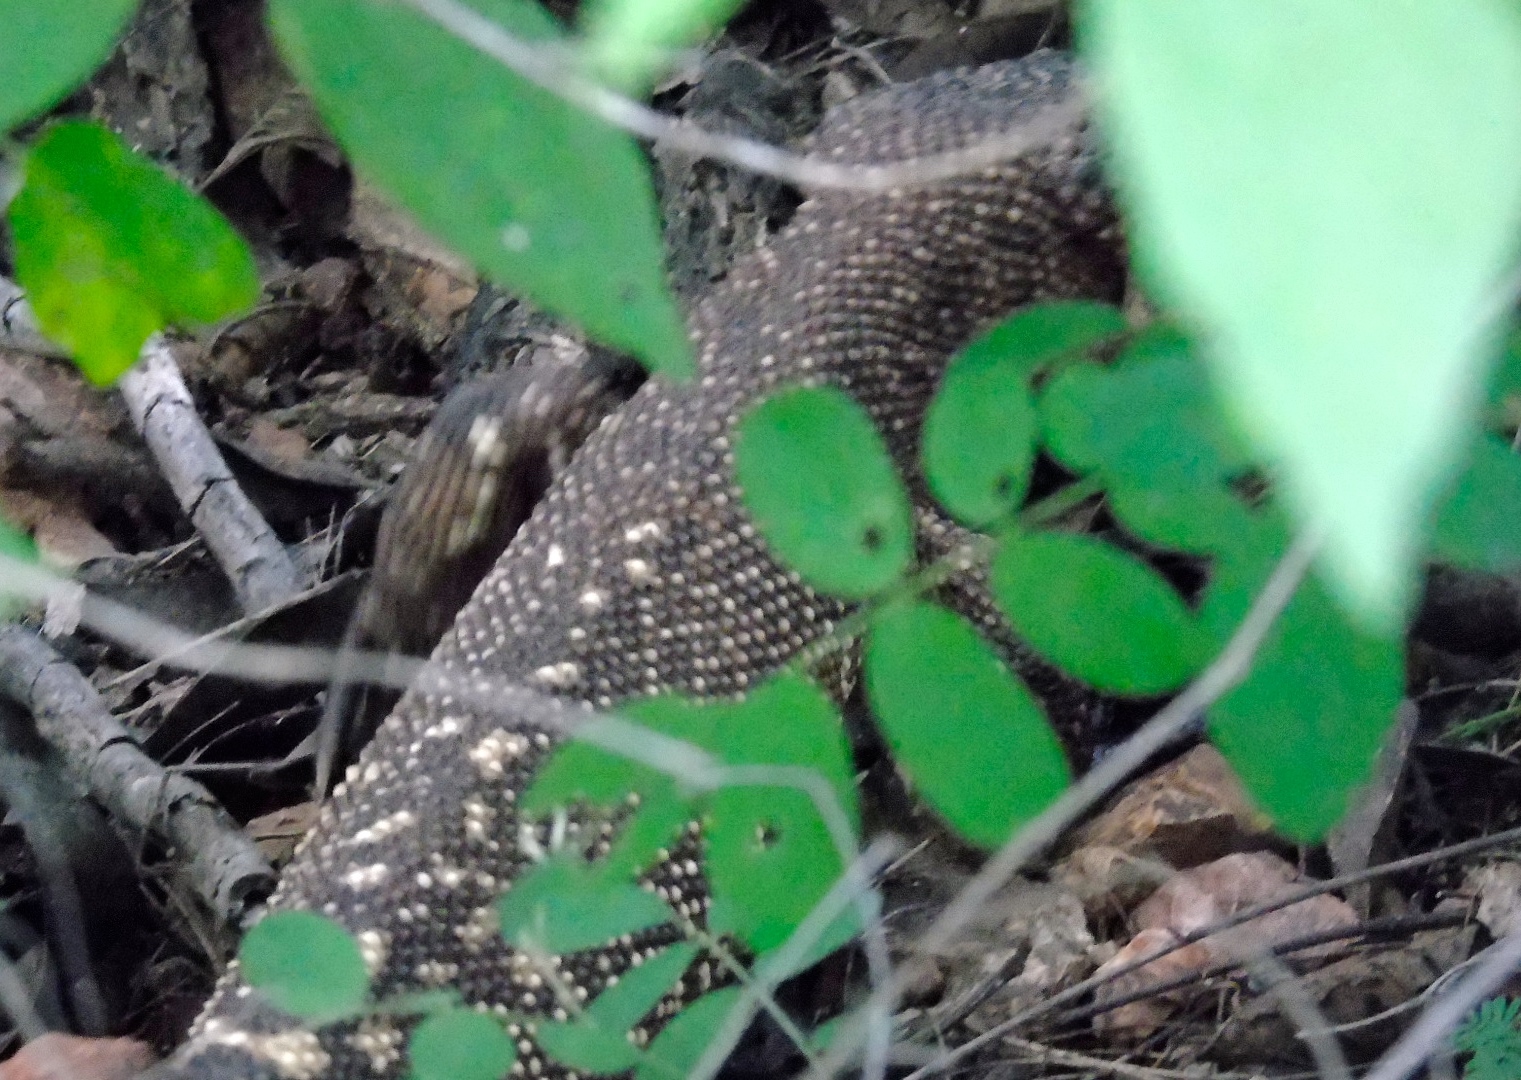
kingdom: Animalia
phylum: Chordata
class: Squamata
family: Helodermatidae
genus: Heloderma
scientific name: Heloderma horridum
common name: Mexican beaded lizard
